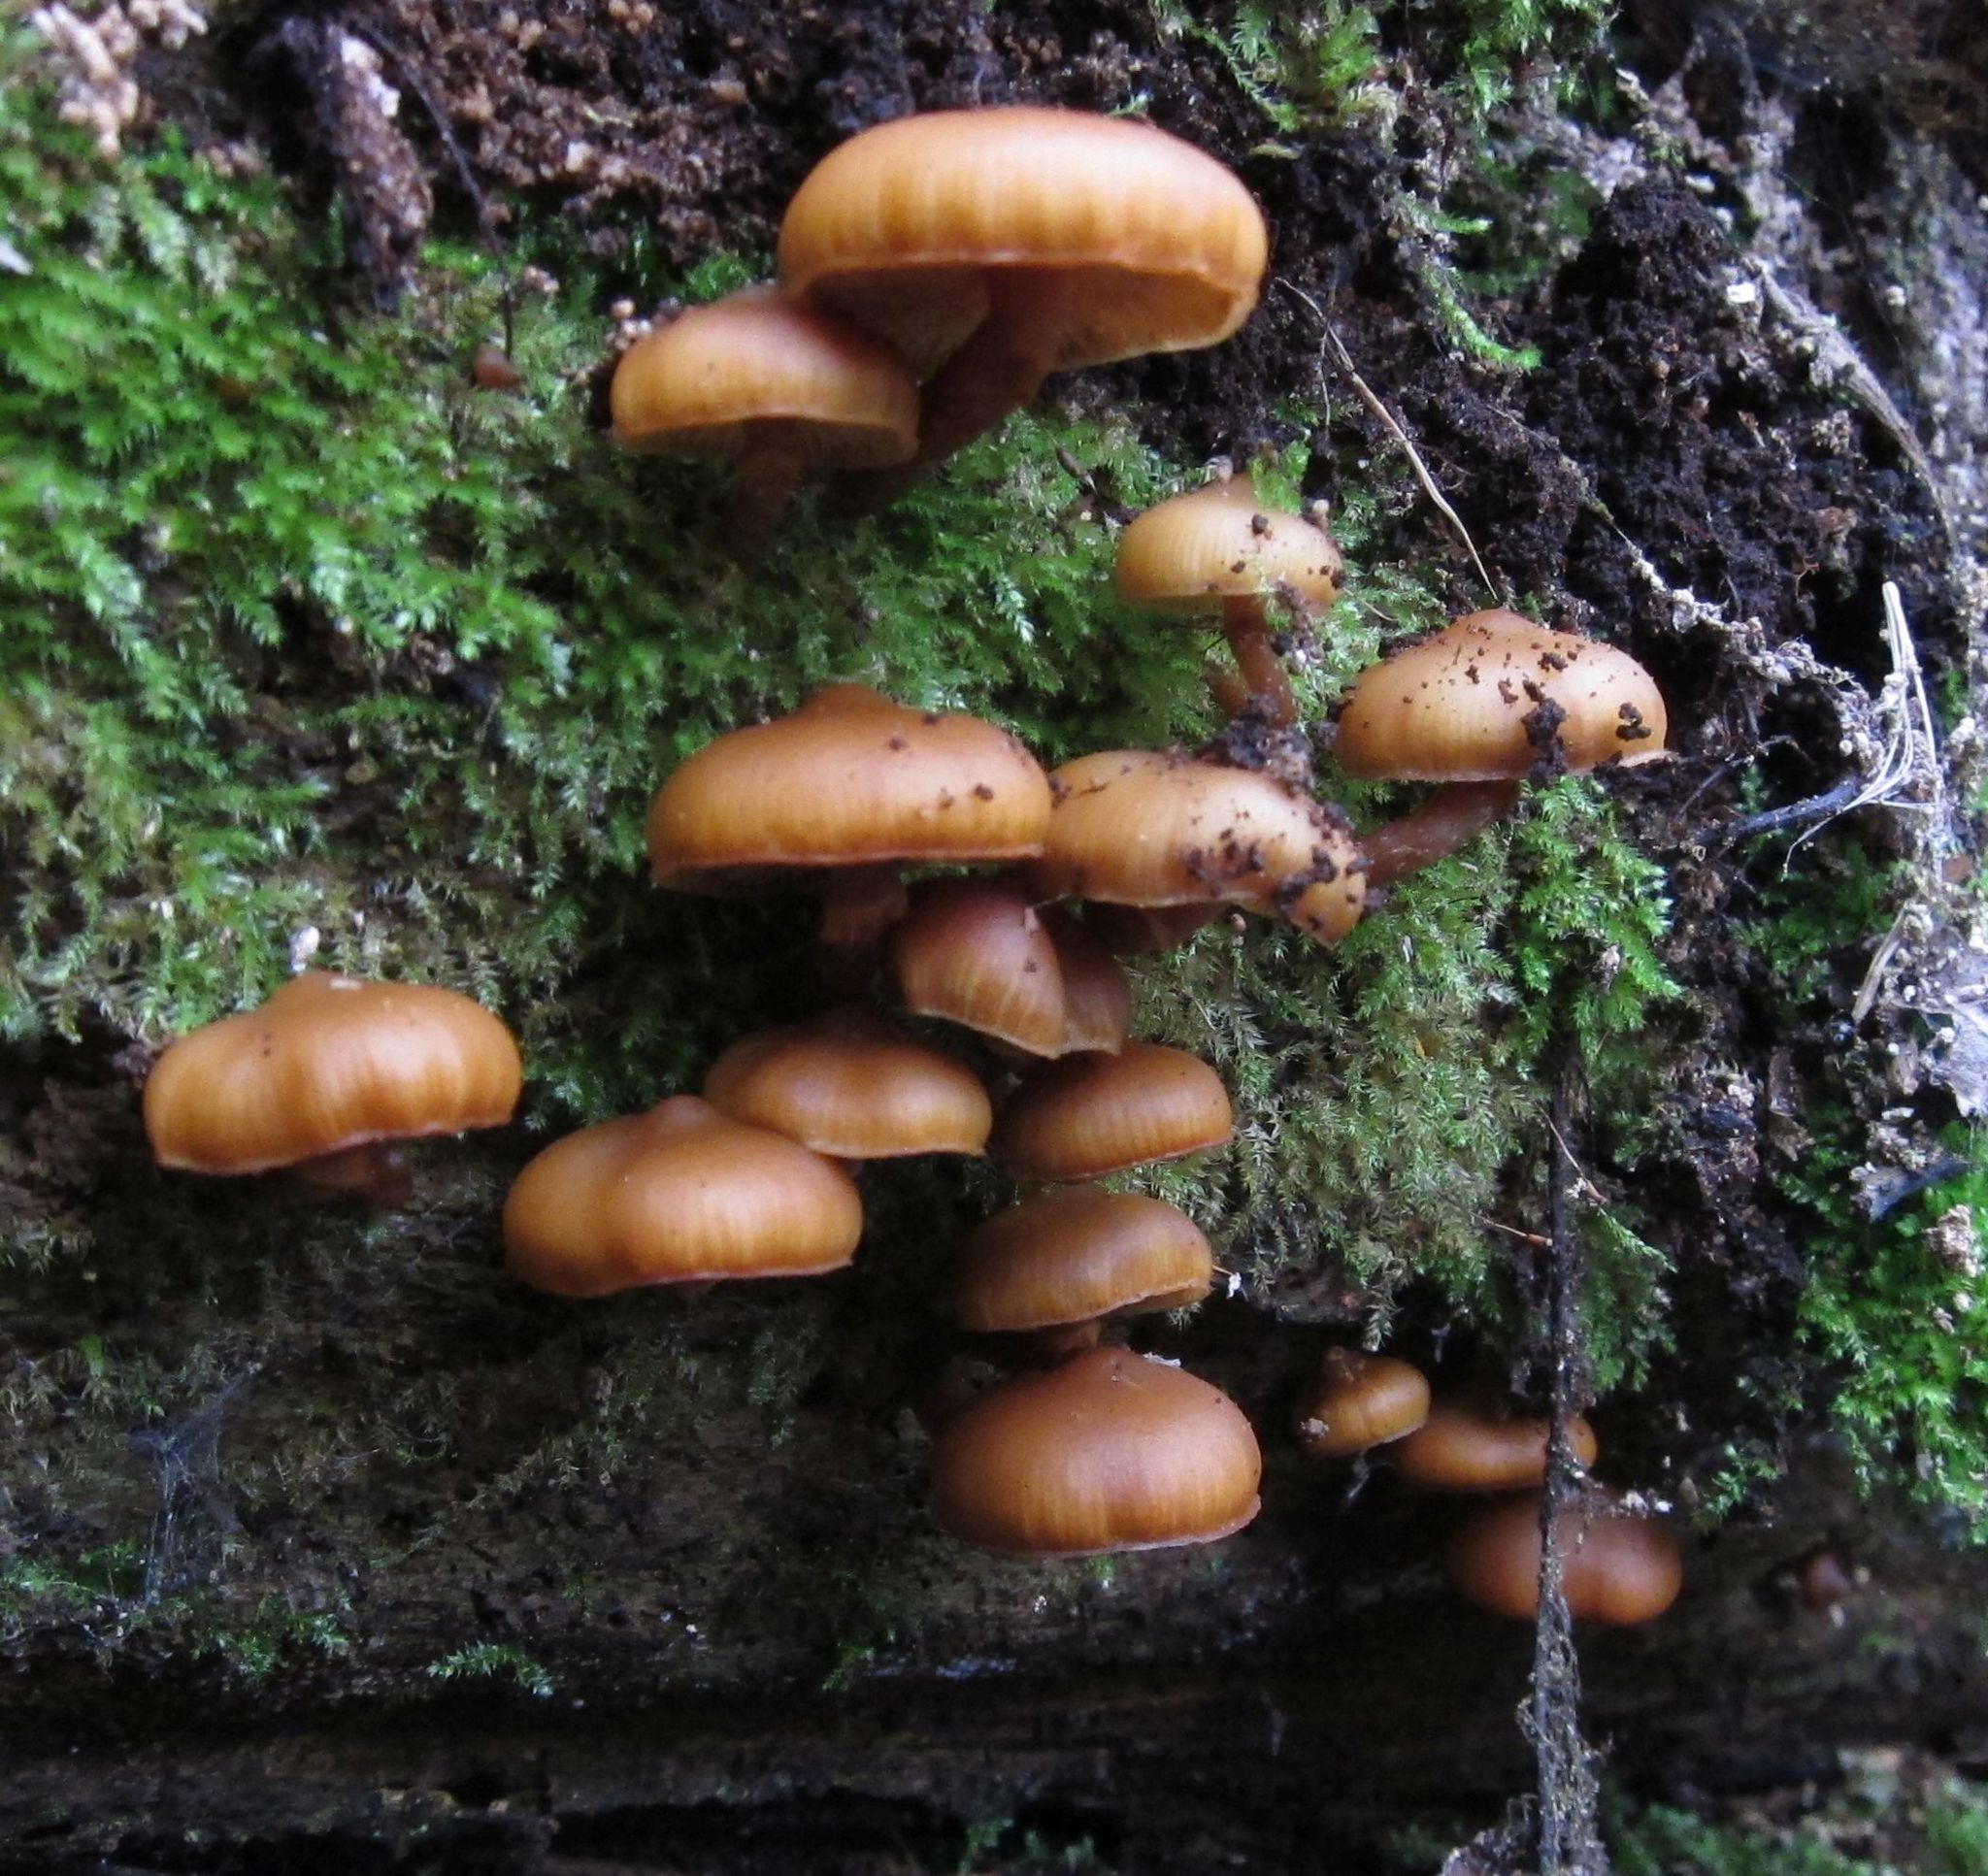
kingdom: Fungi
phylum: Basidiomycota
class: Agaricomycetes
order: Agaricales
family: Hymenogastraceae
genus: Galerina
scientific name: Galerina patagonica
